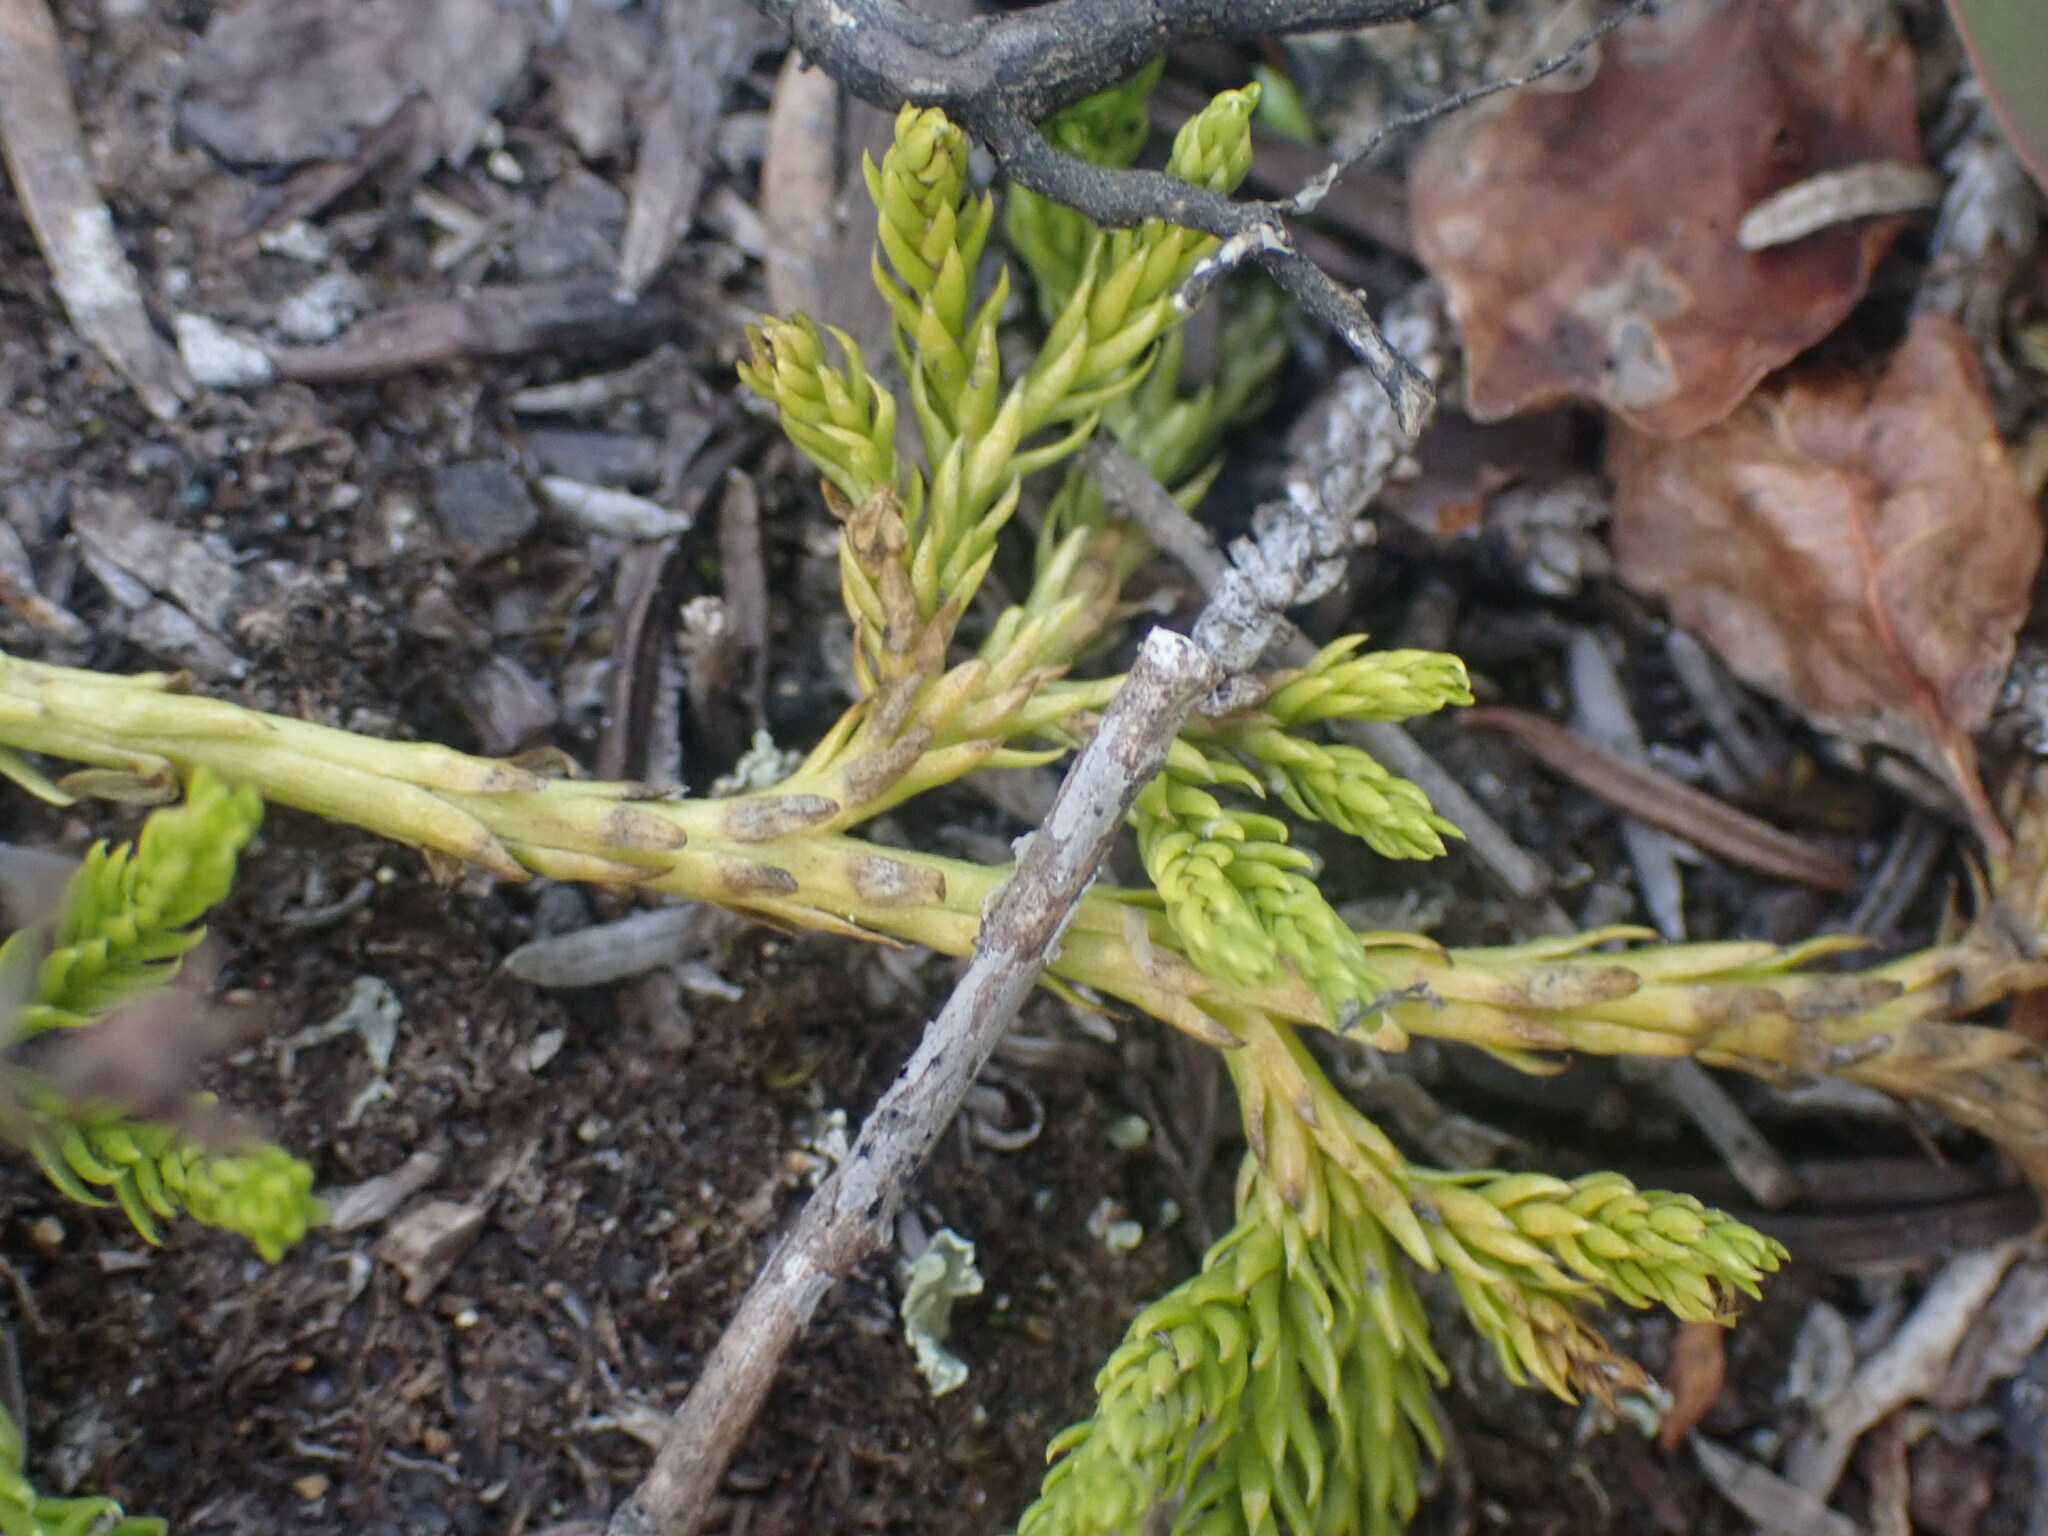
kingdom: Plantae
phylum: Tracheophyta
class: Lycopodiopsida
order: Lycopodiales
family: Lycopodiaceae
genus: Diphasiastrum
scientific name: Diphasiastrum sitchense
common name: Alaska clubmoss
